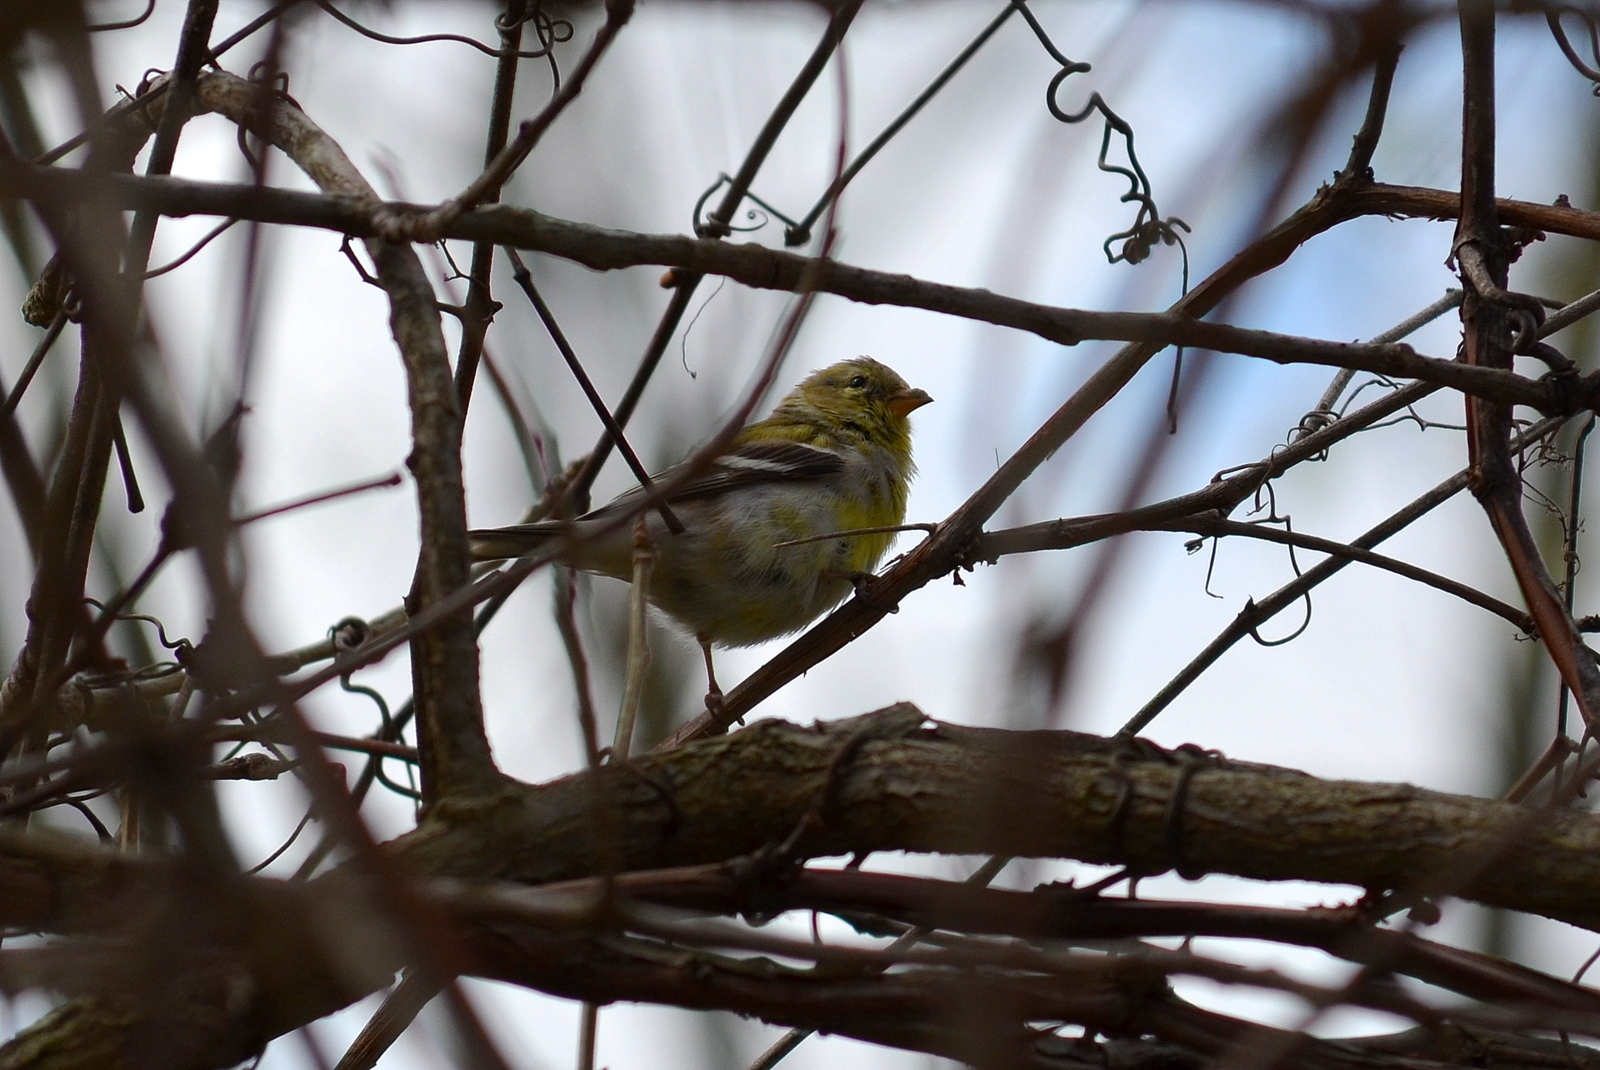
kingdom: Animalia
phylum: Chordata
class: Aves
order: Passeriformes
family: Fringillidae
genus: Spinus
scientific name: Spinus tristis
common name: American goldfinch
